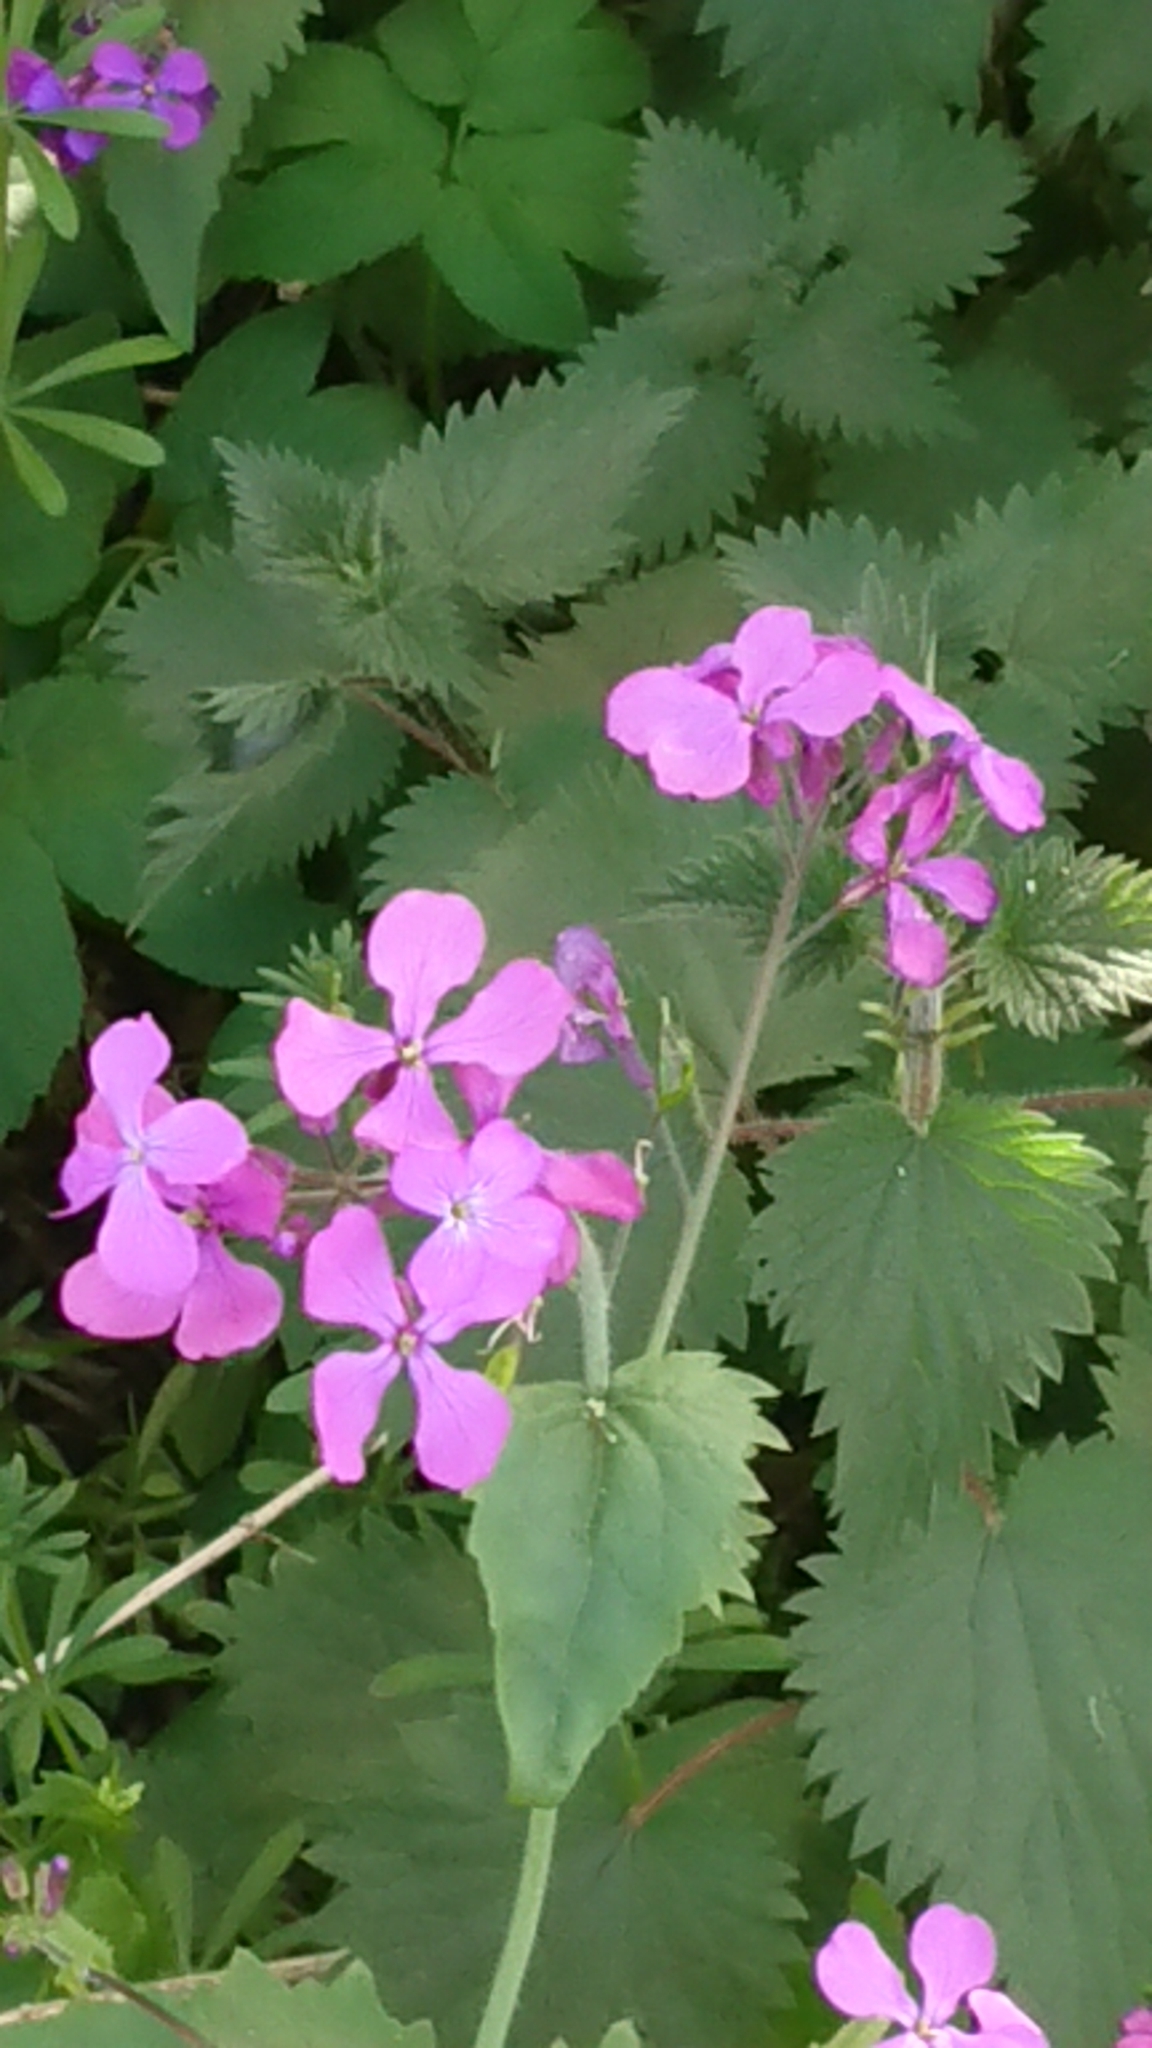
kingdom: Plantae
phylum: Tracheophyta
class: Magnoliopsida
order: Brassicales
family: Brassicaceae
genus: Lunaria
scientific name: Lunaria annua
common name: Honesty
